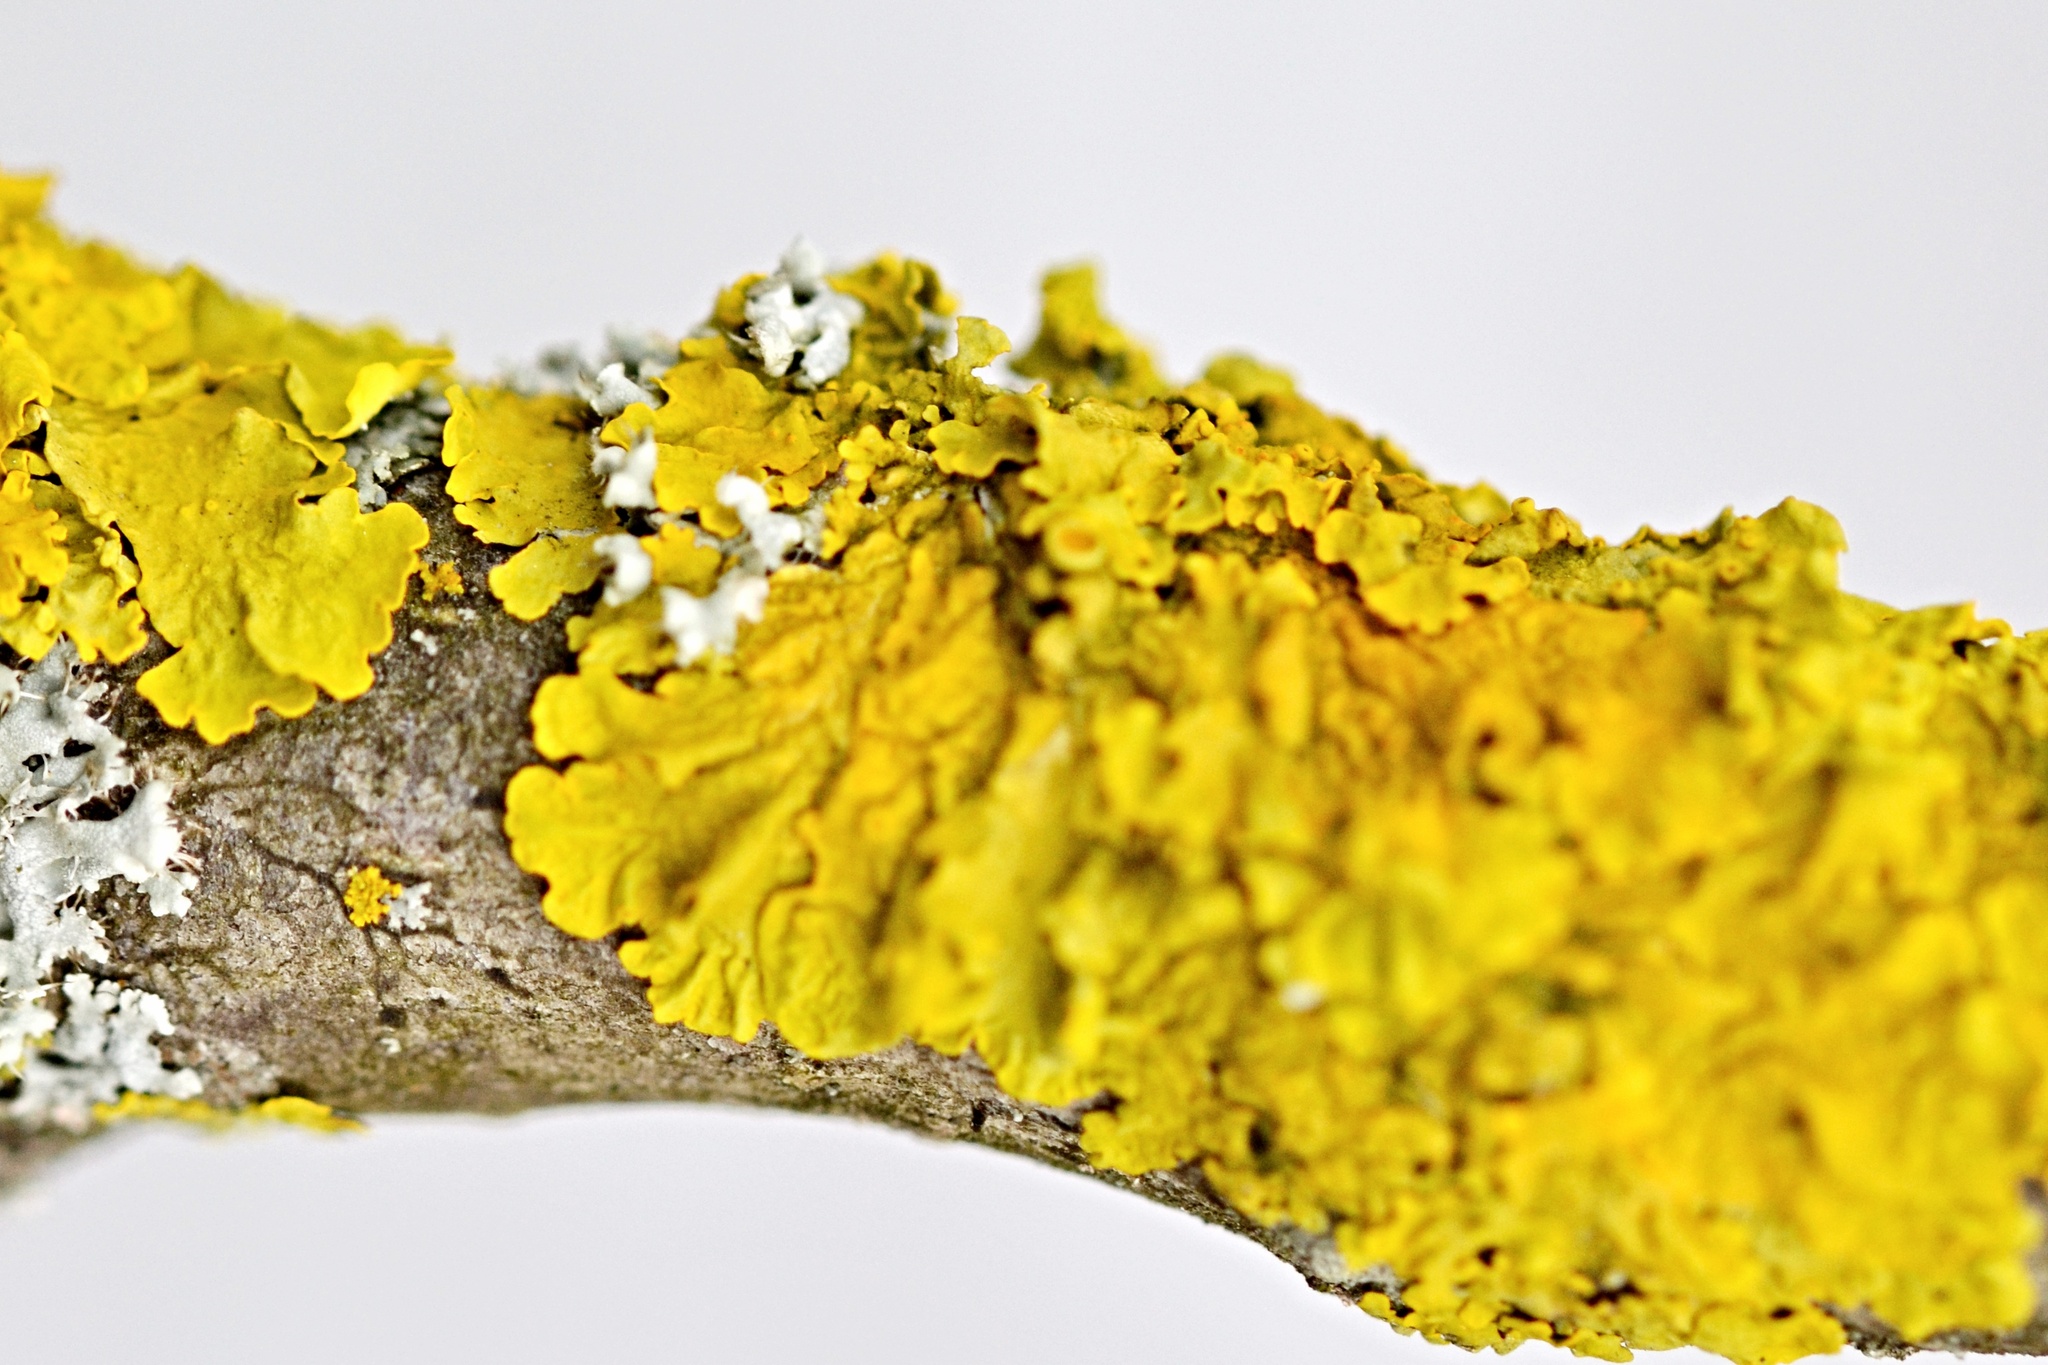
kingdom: Fungi
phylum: Ascomycota
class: Lecanoromycetes
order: Teloschistales
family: Teloschistaceae
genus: Xanthoria
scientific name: Xanthoria parietina
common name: Common orange lichen
